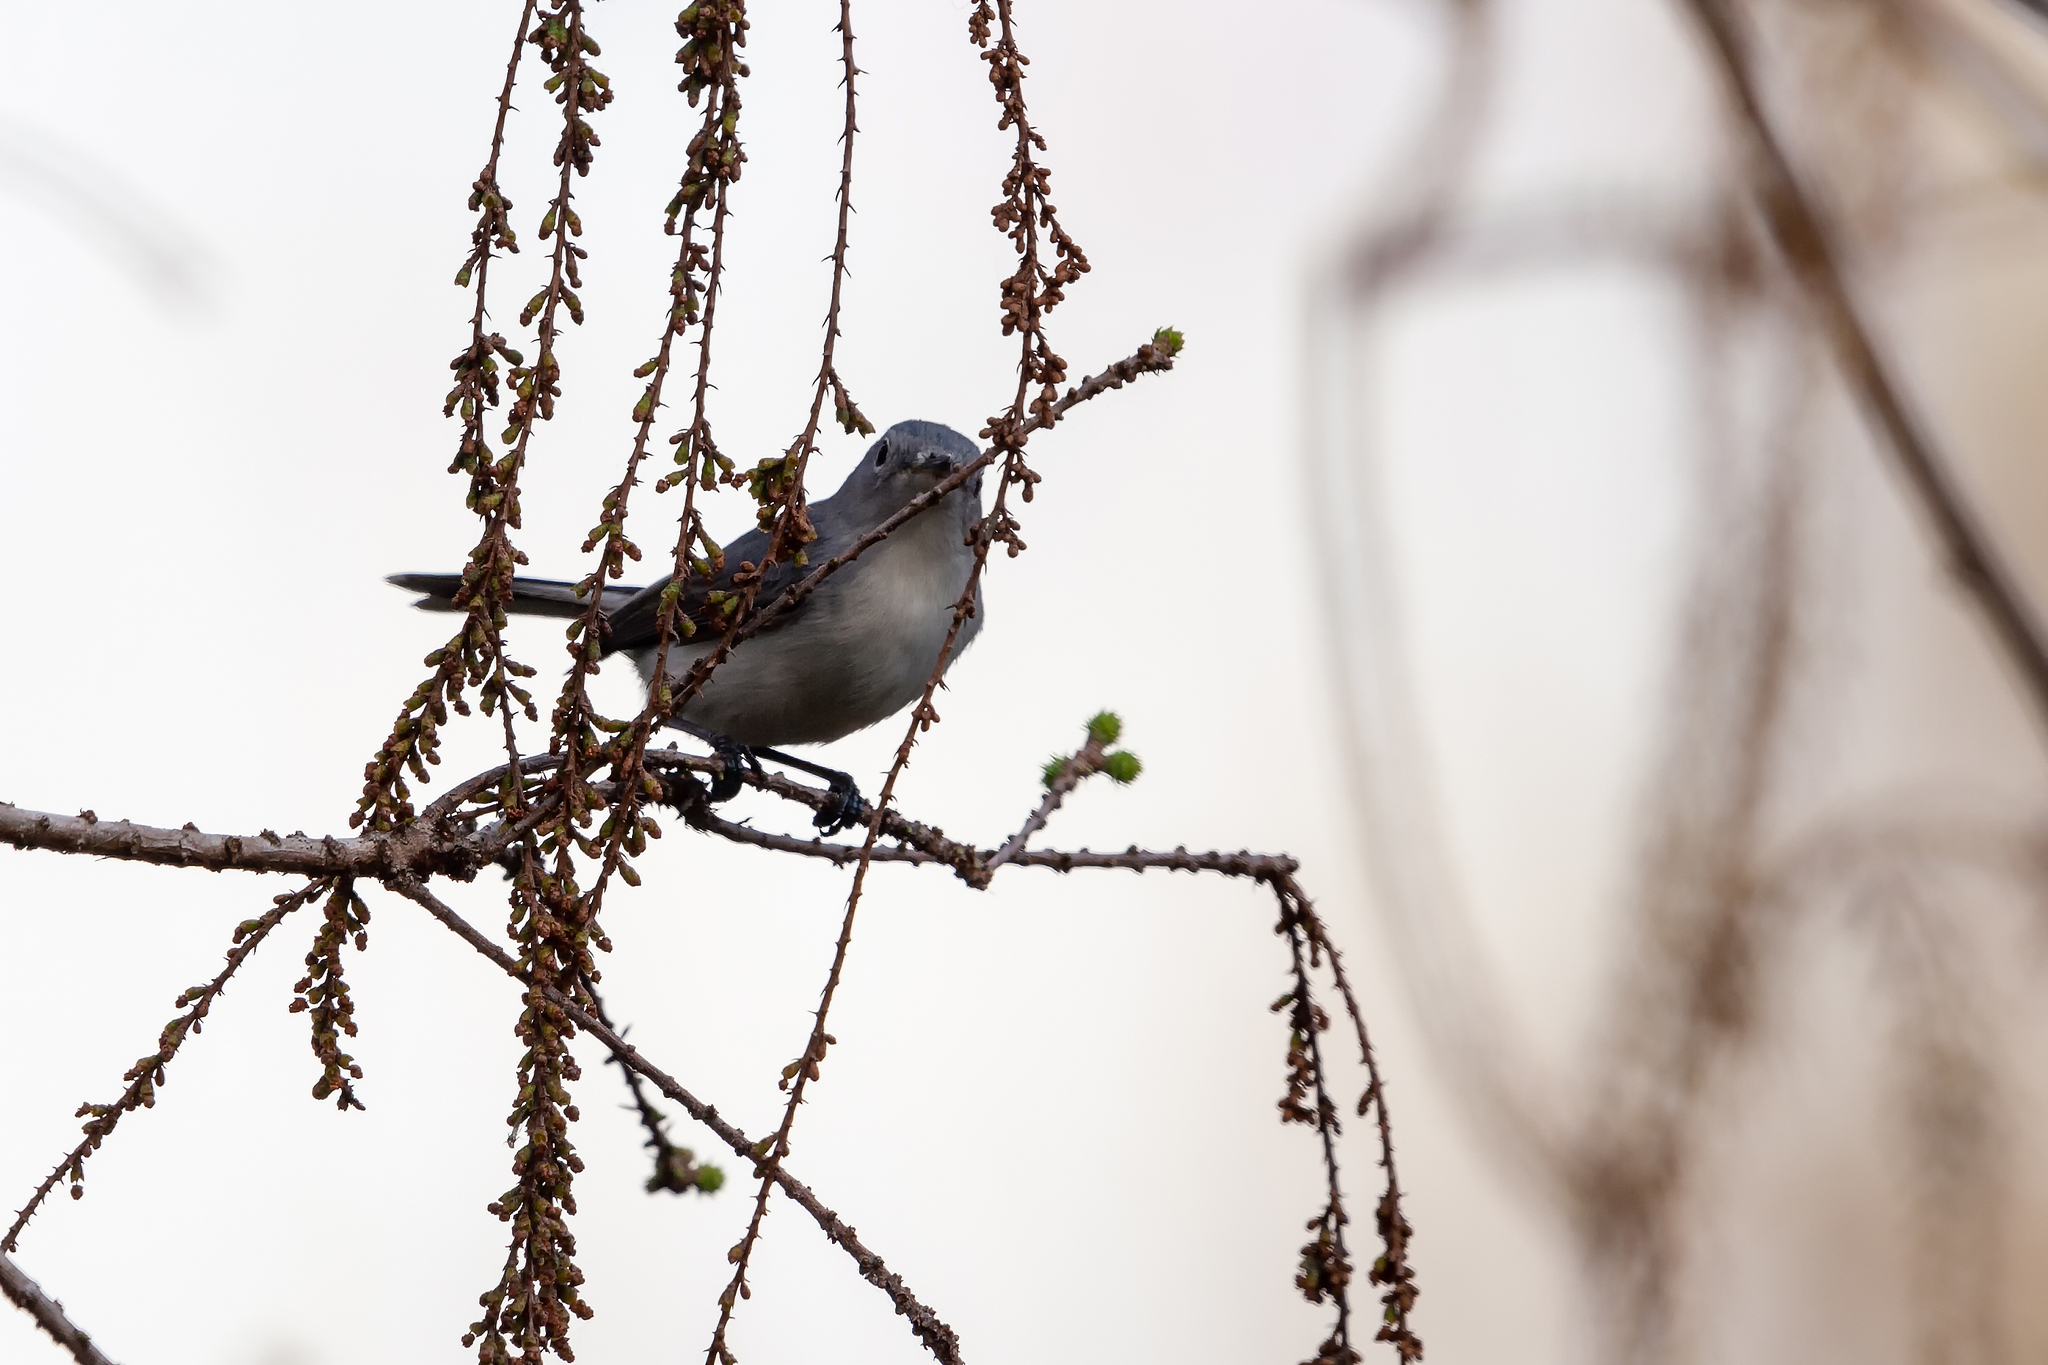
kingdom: Animalia
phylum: Chordata
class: Aves
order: Passeriformes
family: Polioptilidae
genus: Polioptila
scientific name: Polioptila caerulea
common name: Blue-gray gnatcatcher
